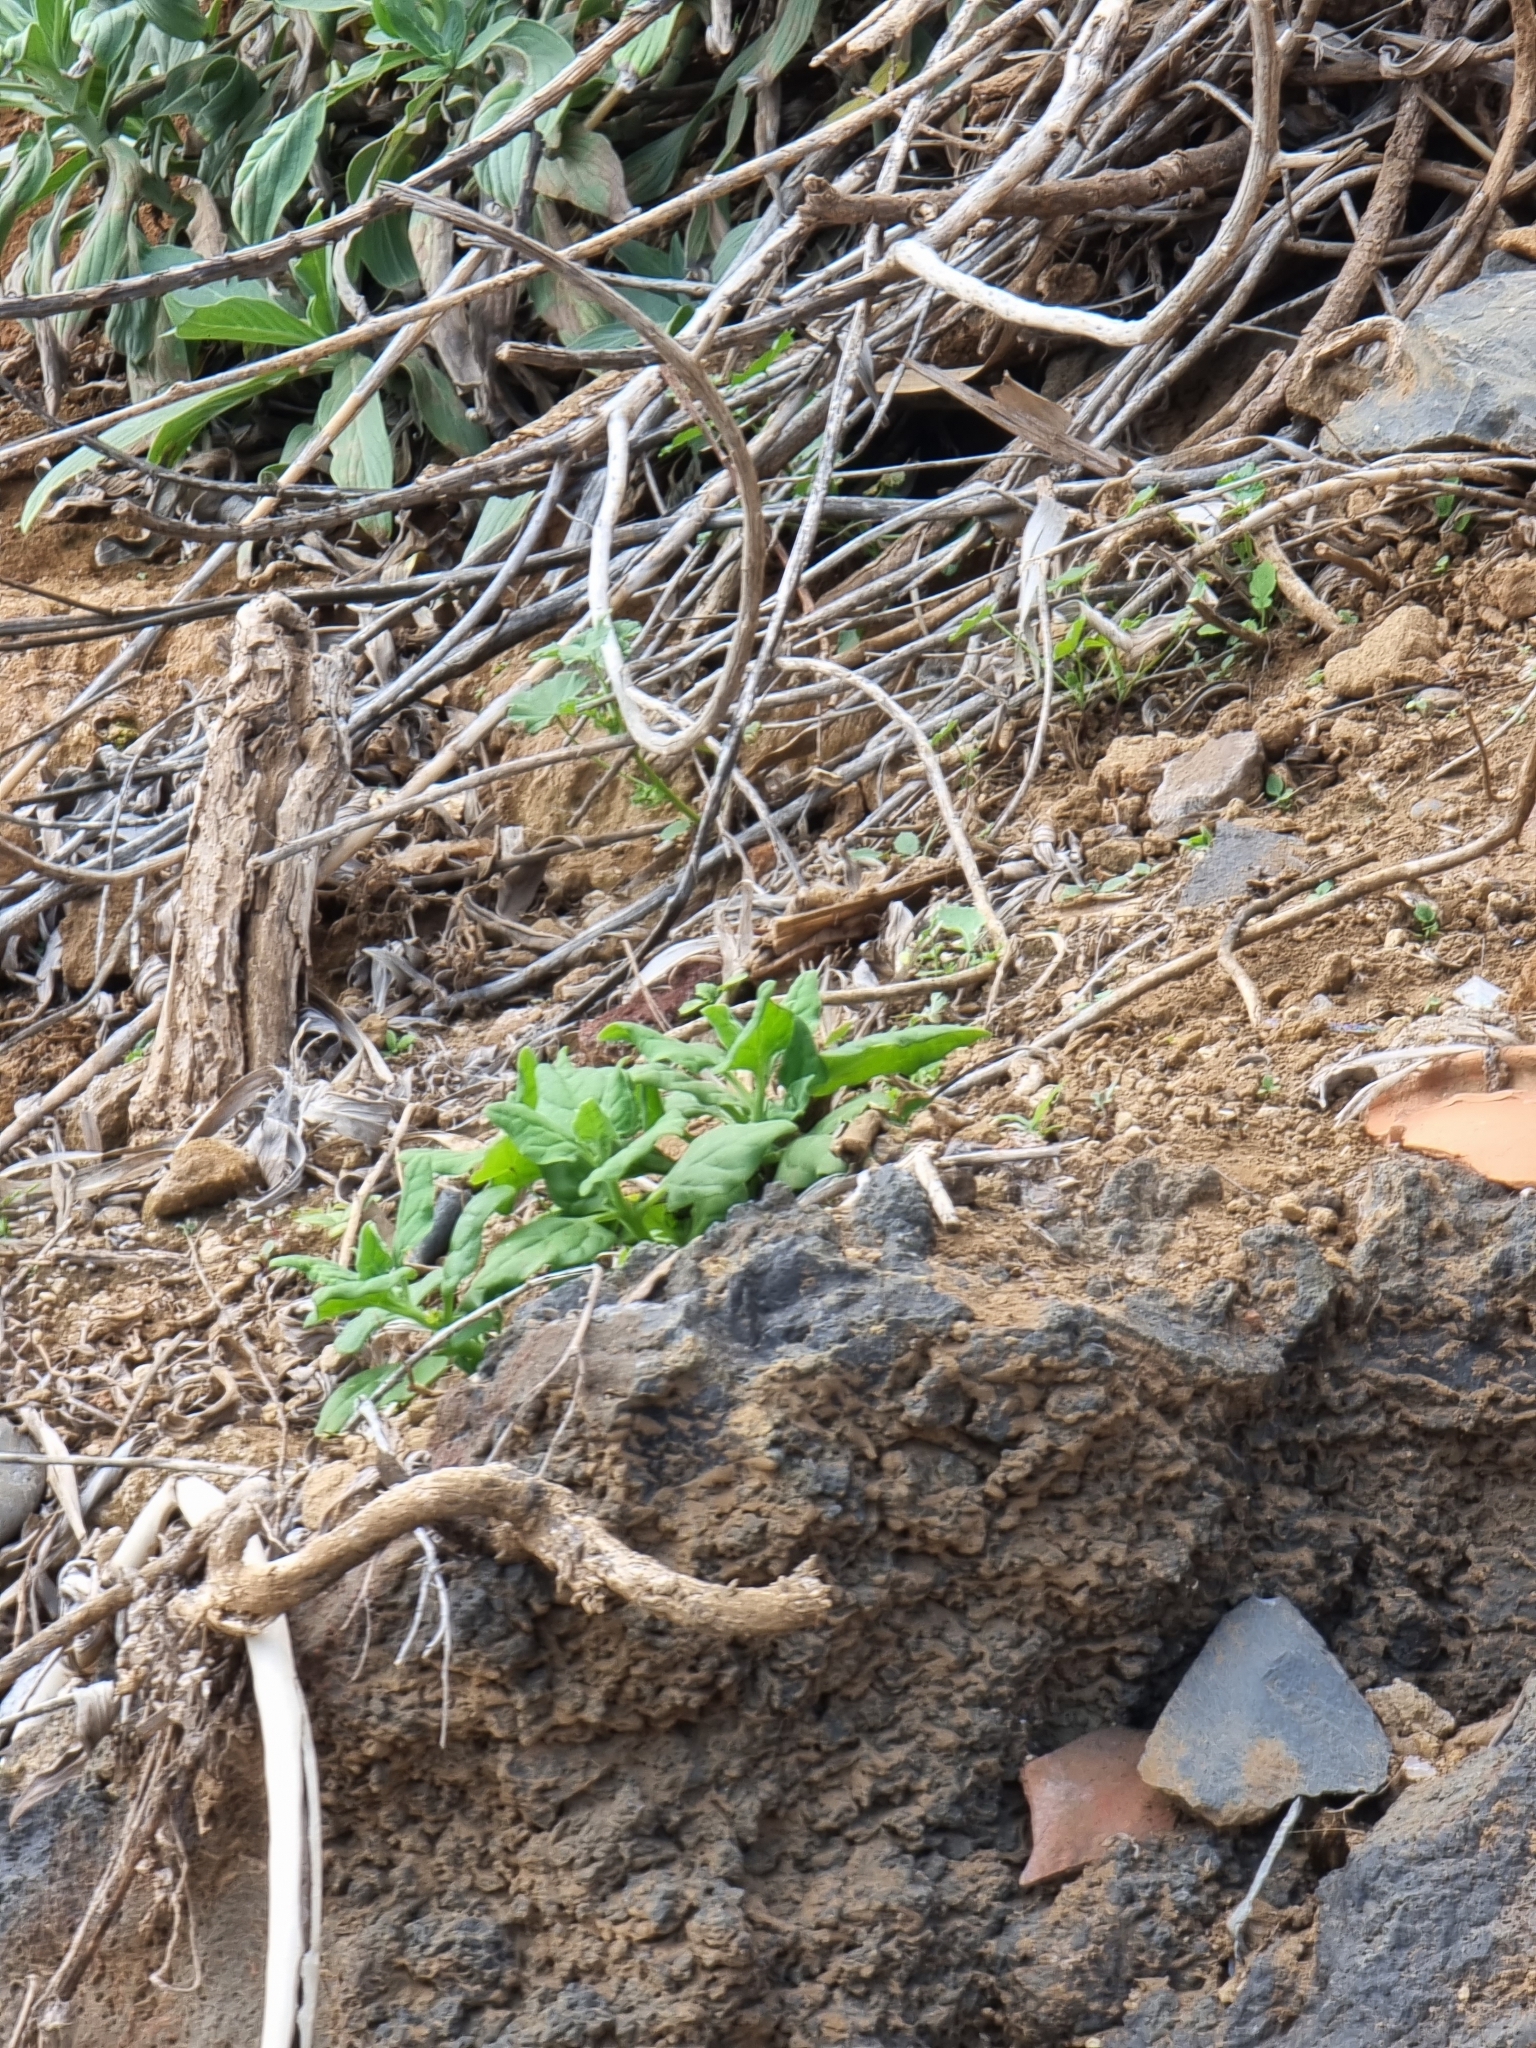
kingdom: Plantae
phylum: Tracheophyta
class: Magnoliopsida
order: Caryophyllales
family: Aizoaceae
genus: Tetragonia
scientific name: Tetragonia tetragonoides
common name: New zealand-spinach
